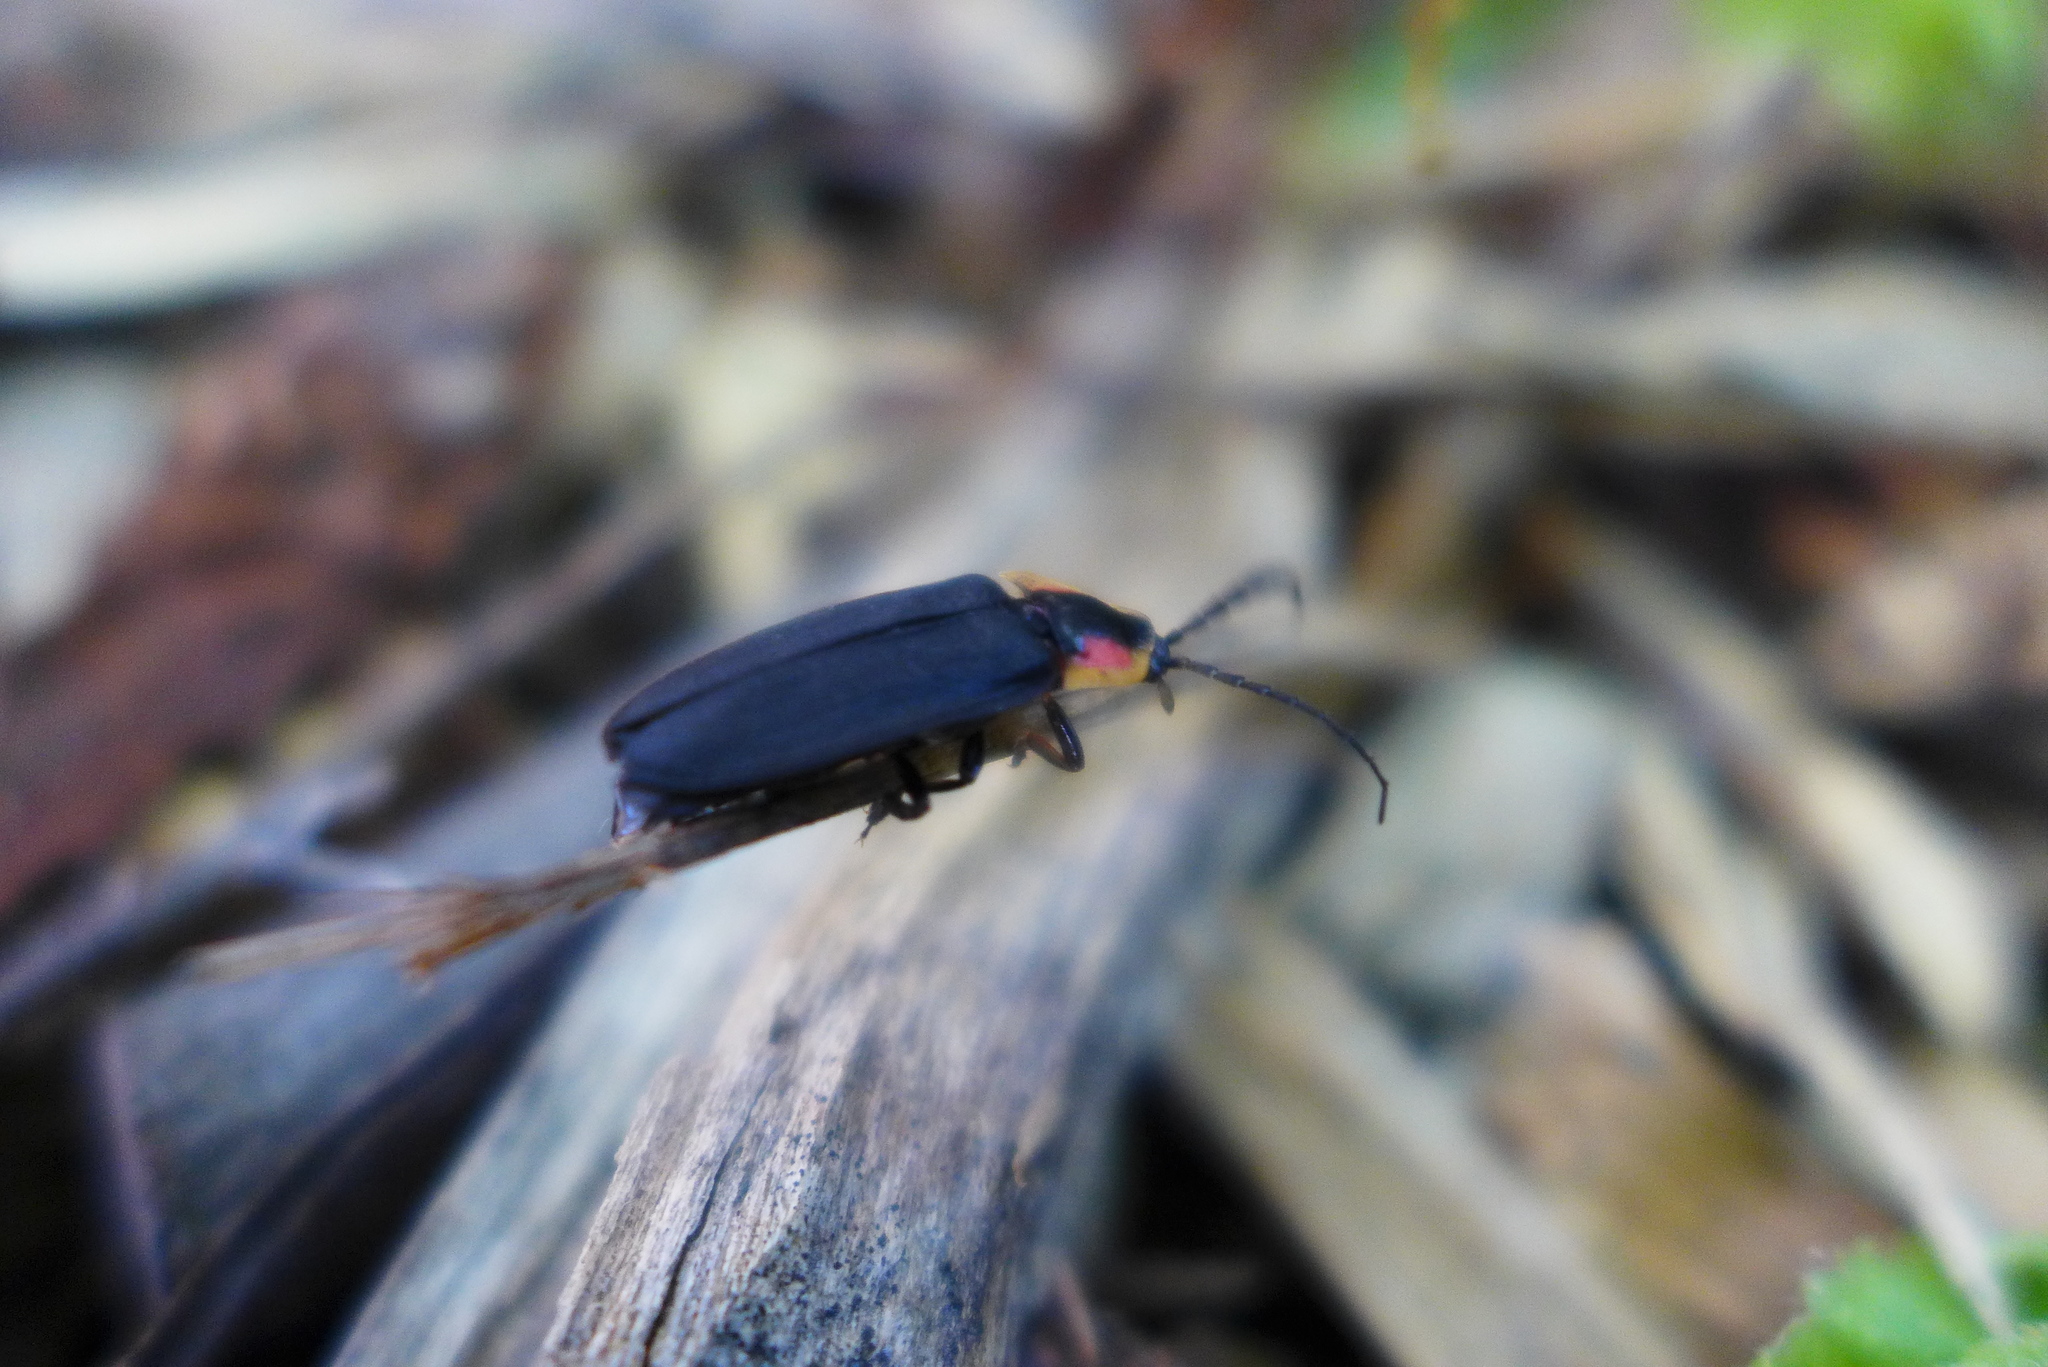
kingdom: Animalia
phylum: Arthropoda
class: Insecta
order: Coleoptera
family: Lampyridae
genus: Lucidota
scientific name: Lucidota atra
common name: Black firefly
